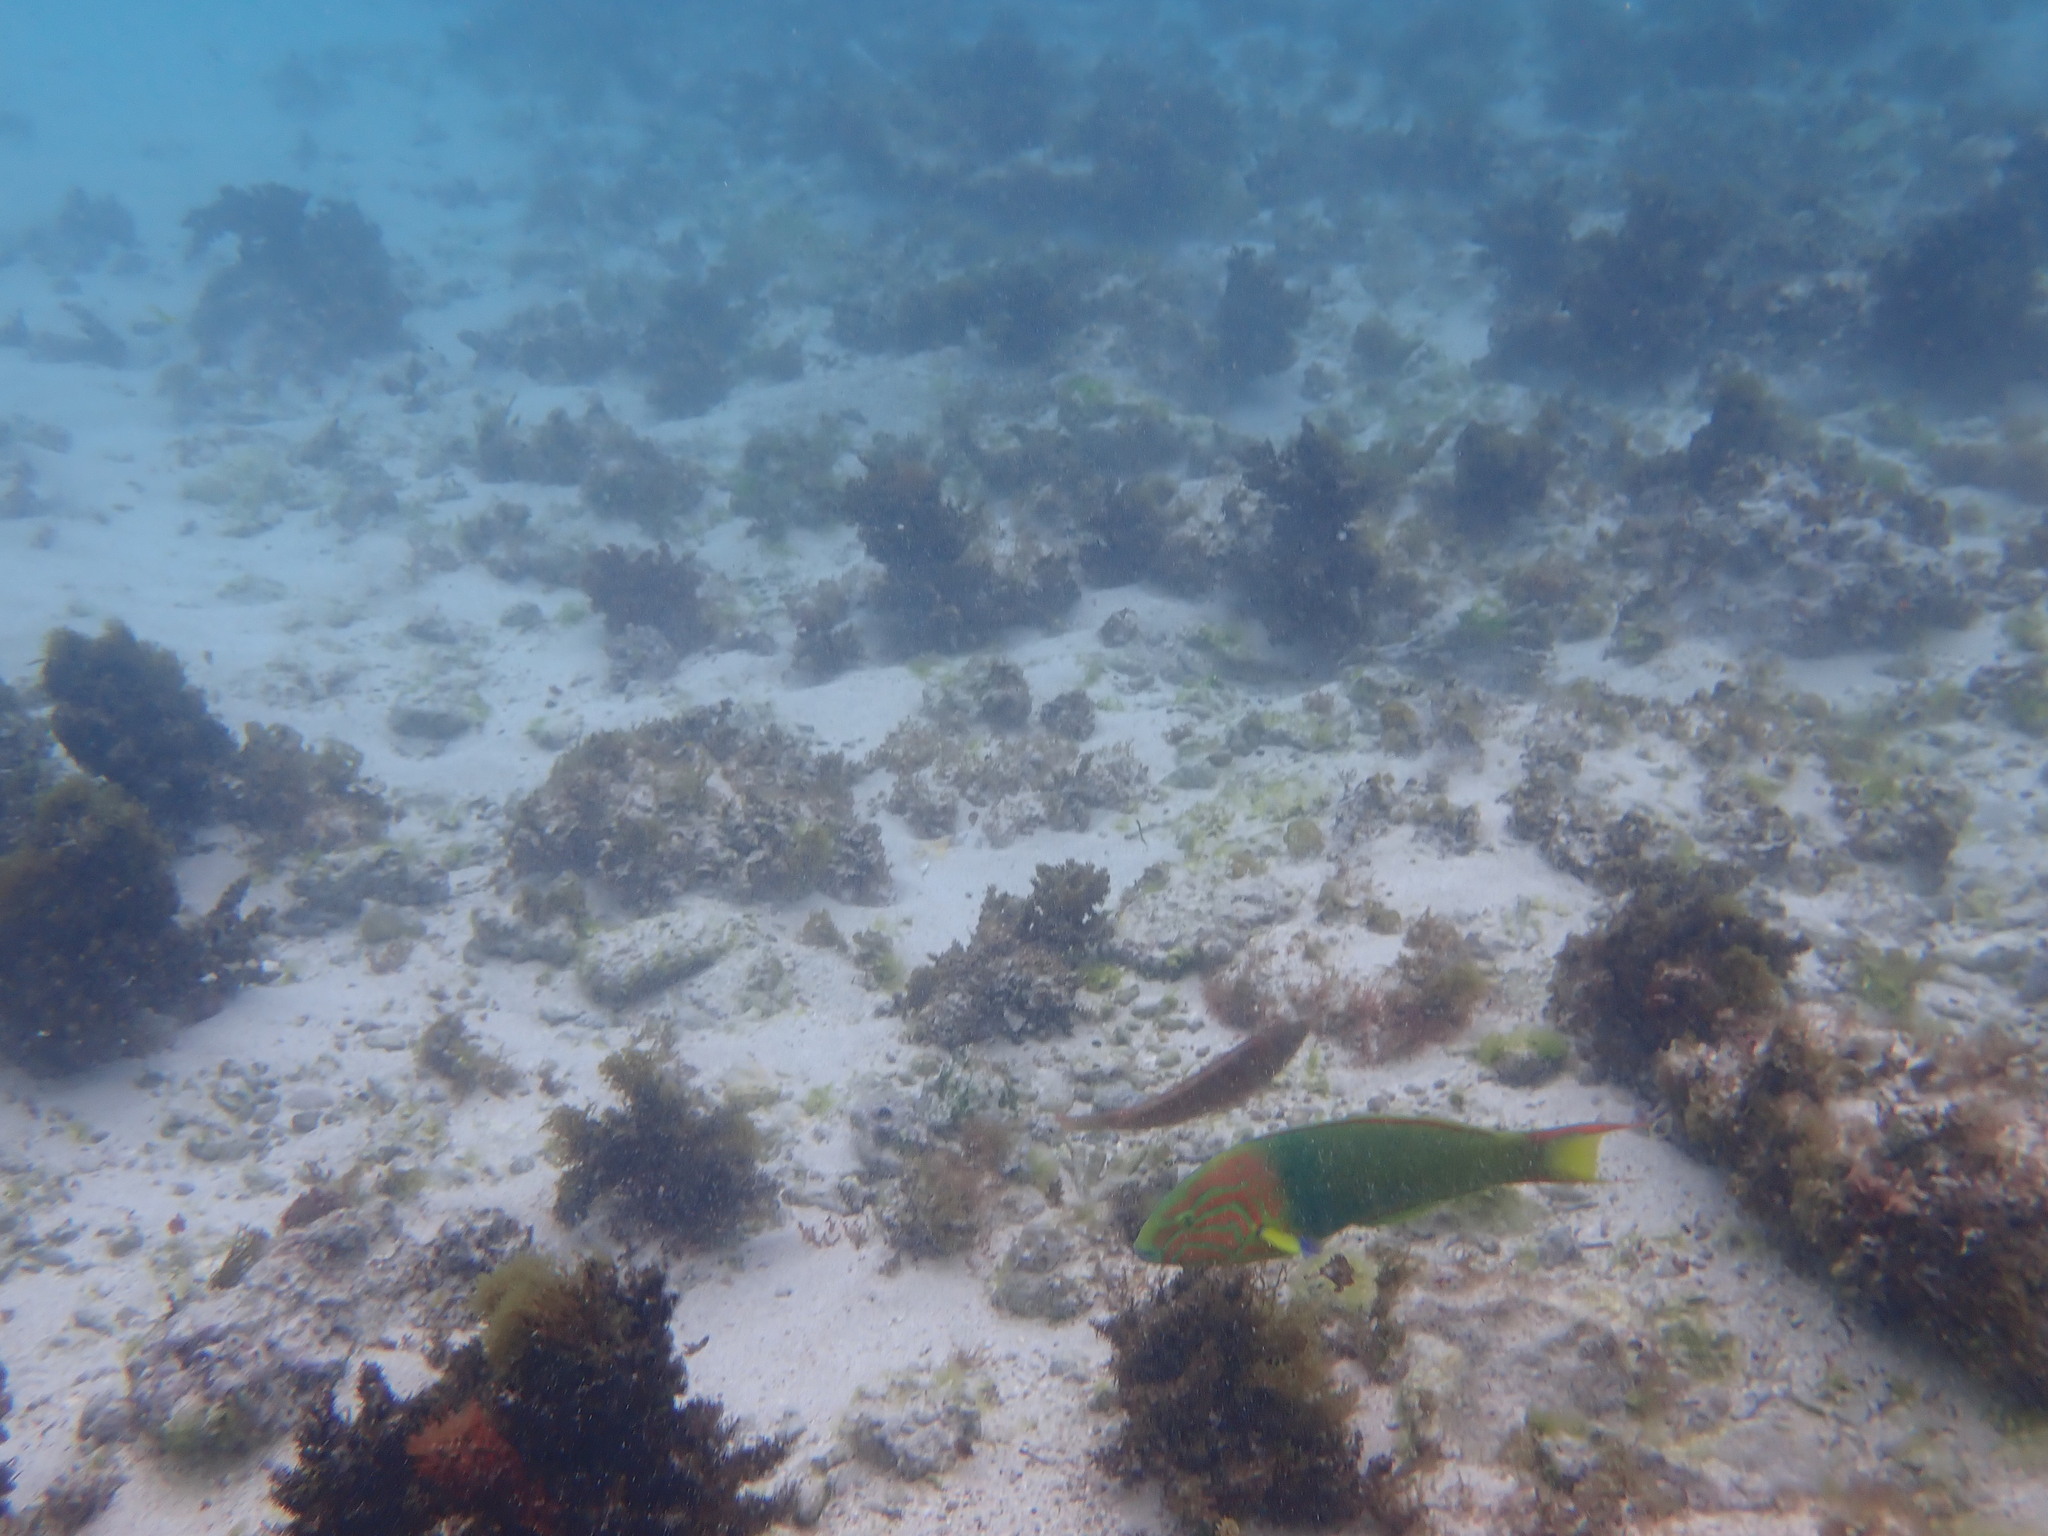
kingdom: Animalia
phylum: Chordata
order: Perciformes
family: Labridae
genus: Thalassoma
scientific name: Thalassoma lutescens
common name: Green moon wrasse
